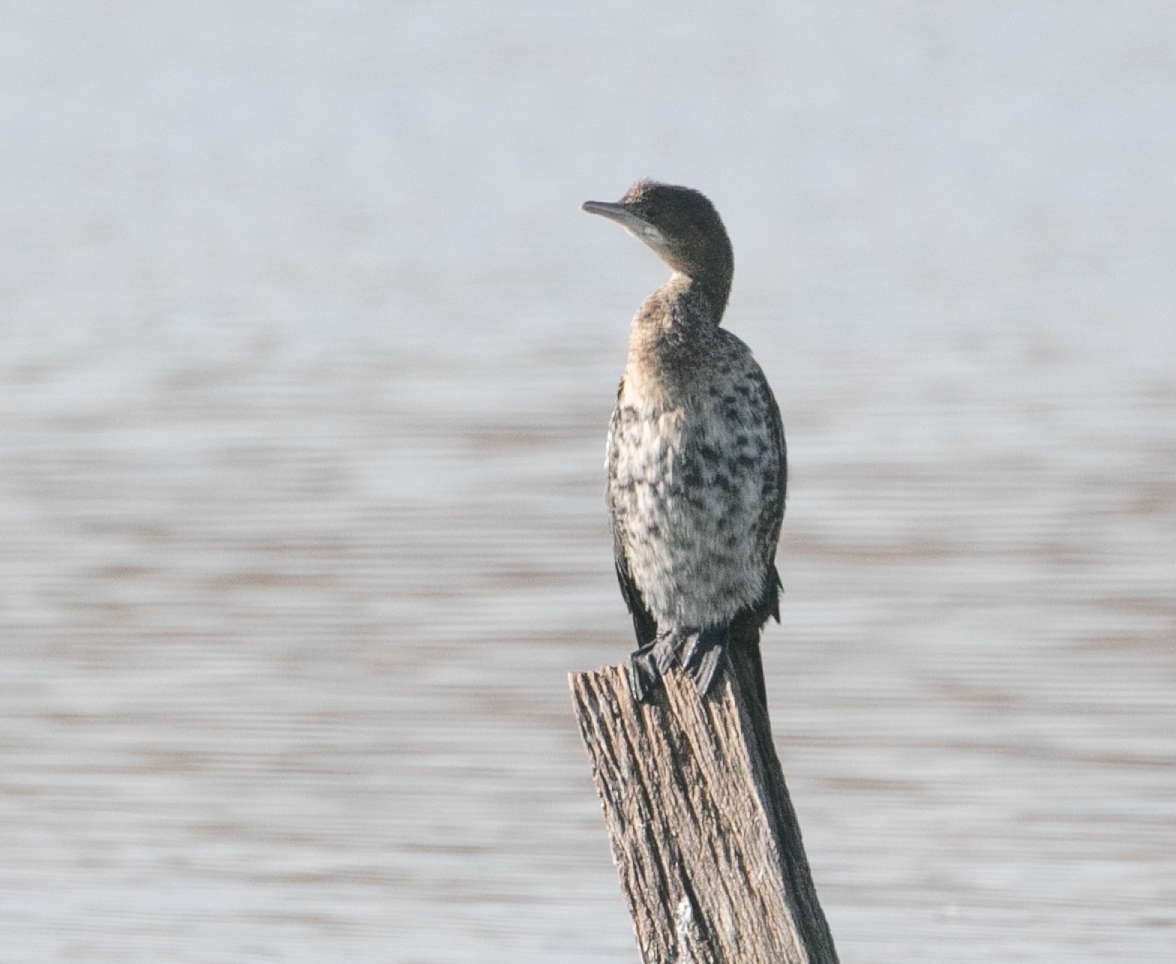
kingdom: Animalia
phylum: Chordata
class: Aves
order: Suliformes
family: Phalacrocoracidae
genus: Microcarbo
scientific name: Microcarbo pygmaeus
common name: Pygmy cormorant
